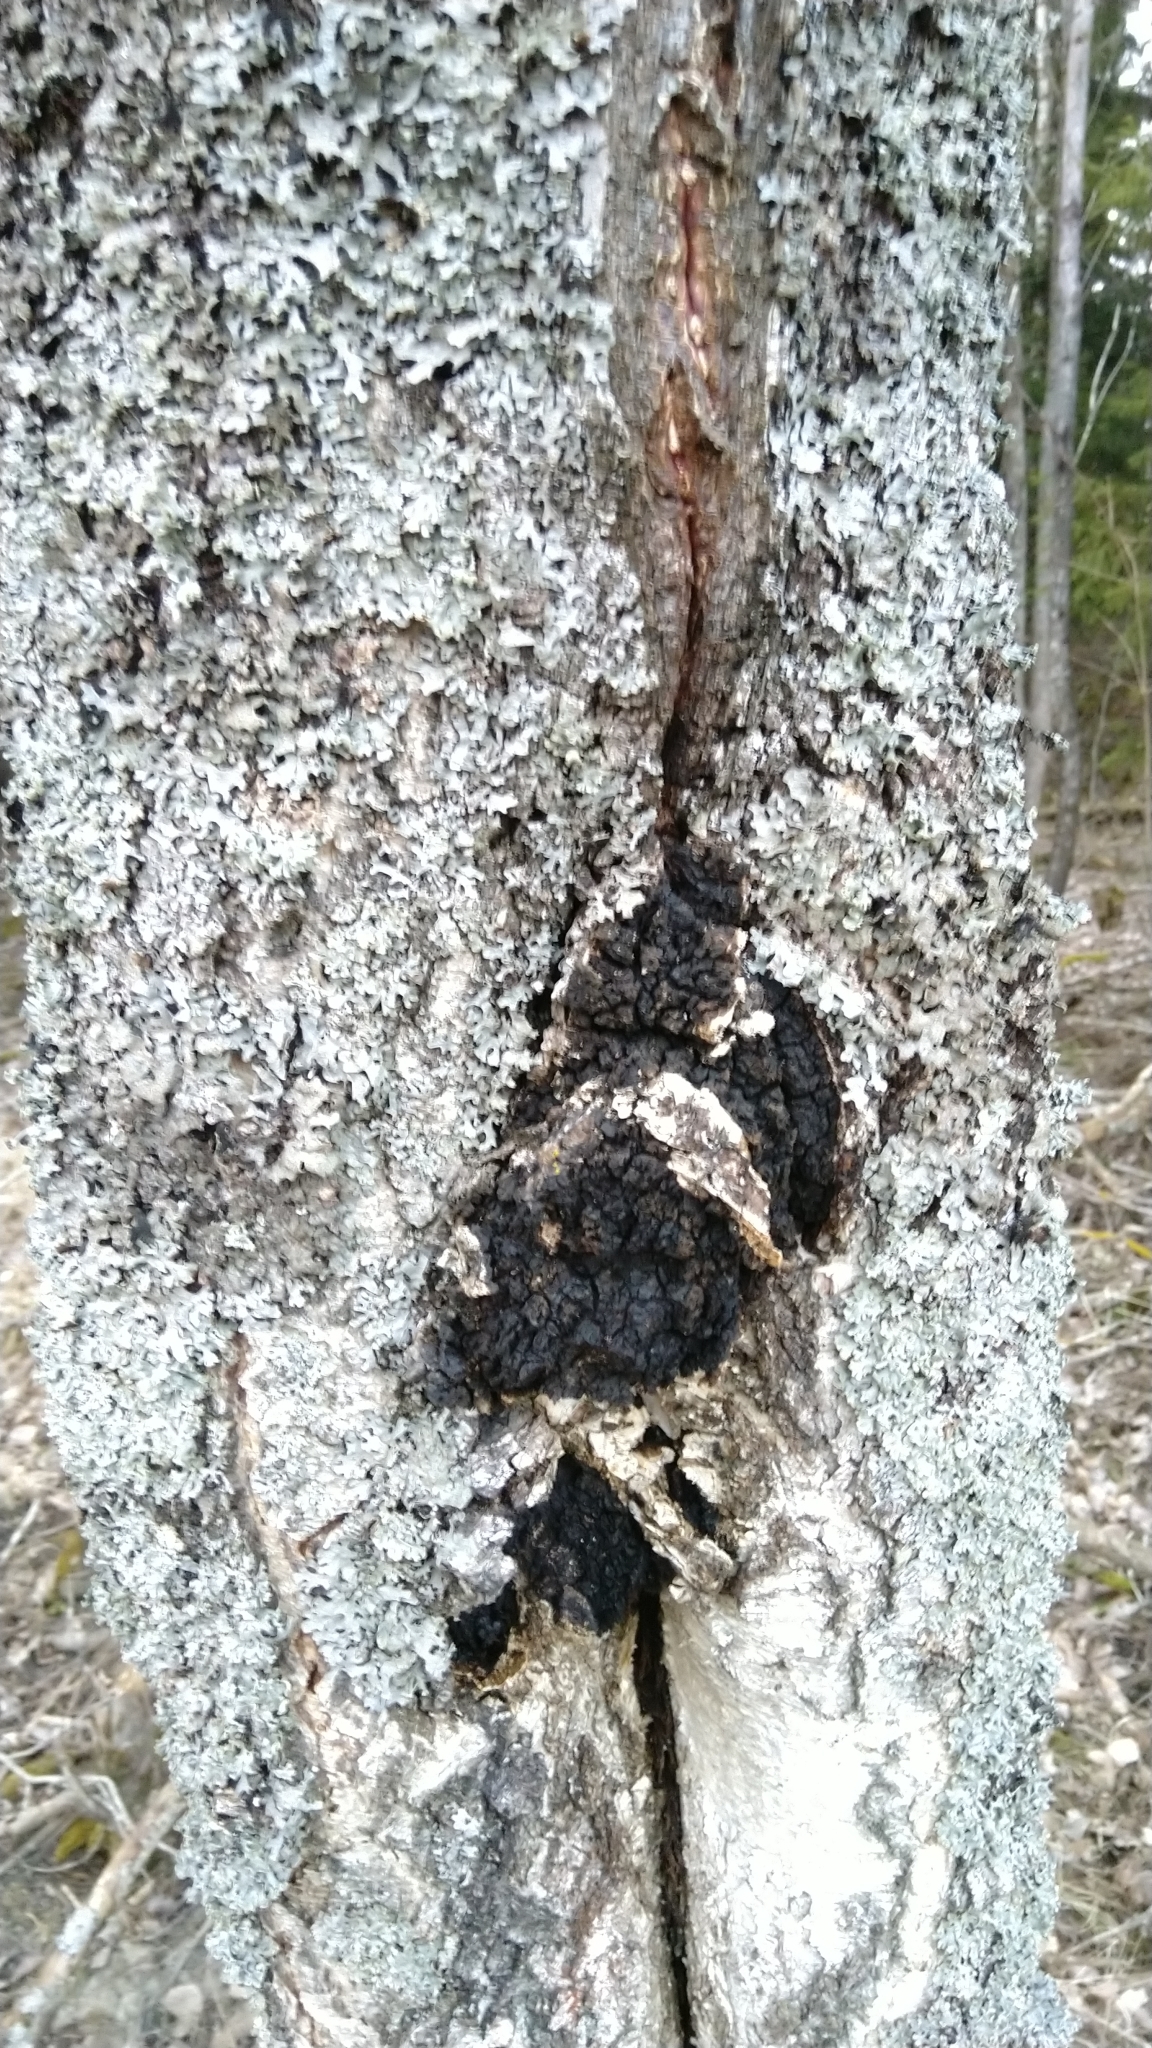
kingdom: Fungi
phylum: Basidiomycota
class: Agaricomycetes
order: Hymenochaetales
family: Hymenochaetaceae
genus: Inonotus
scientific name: Inonotus obliquus
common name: Chaga
